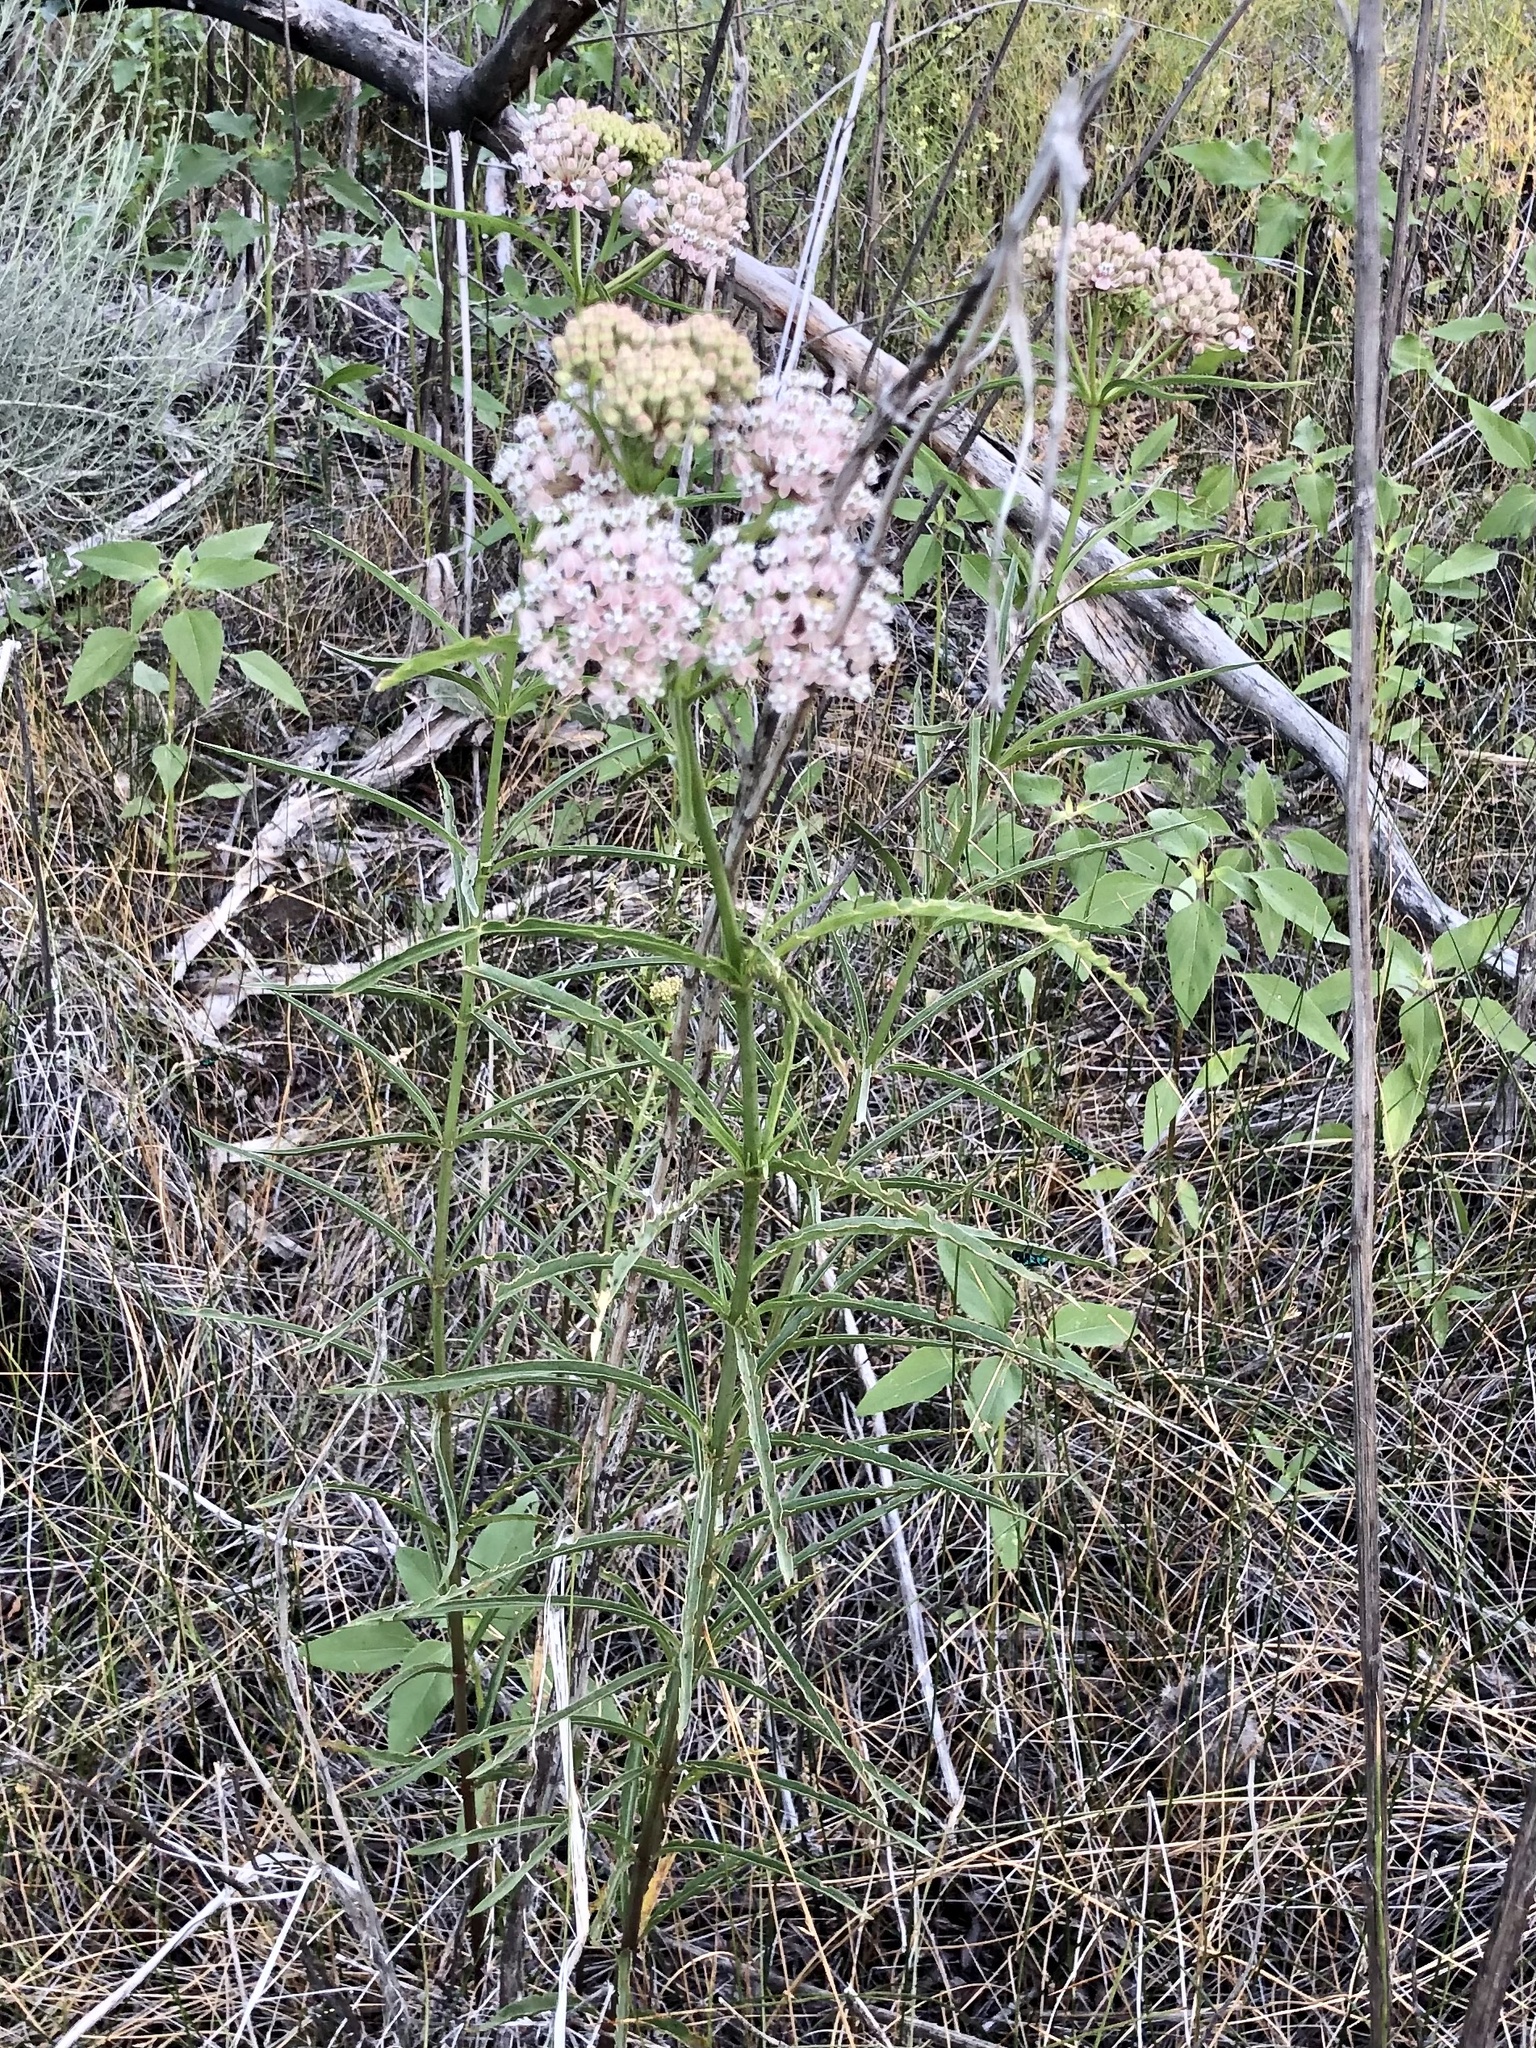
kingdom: Plantae
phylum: Tracheophyta
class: Magnoliopsida
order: Gentianales
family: Apocynaceae
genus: Asclepias
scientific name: Asclepias fascicularis
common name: Mexican milkweed
